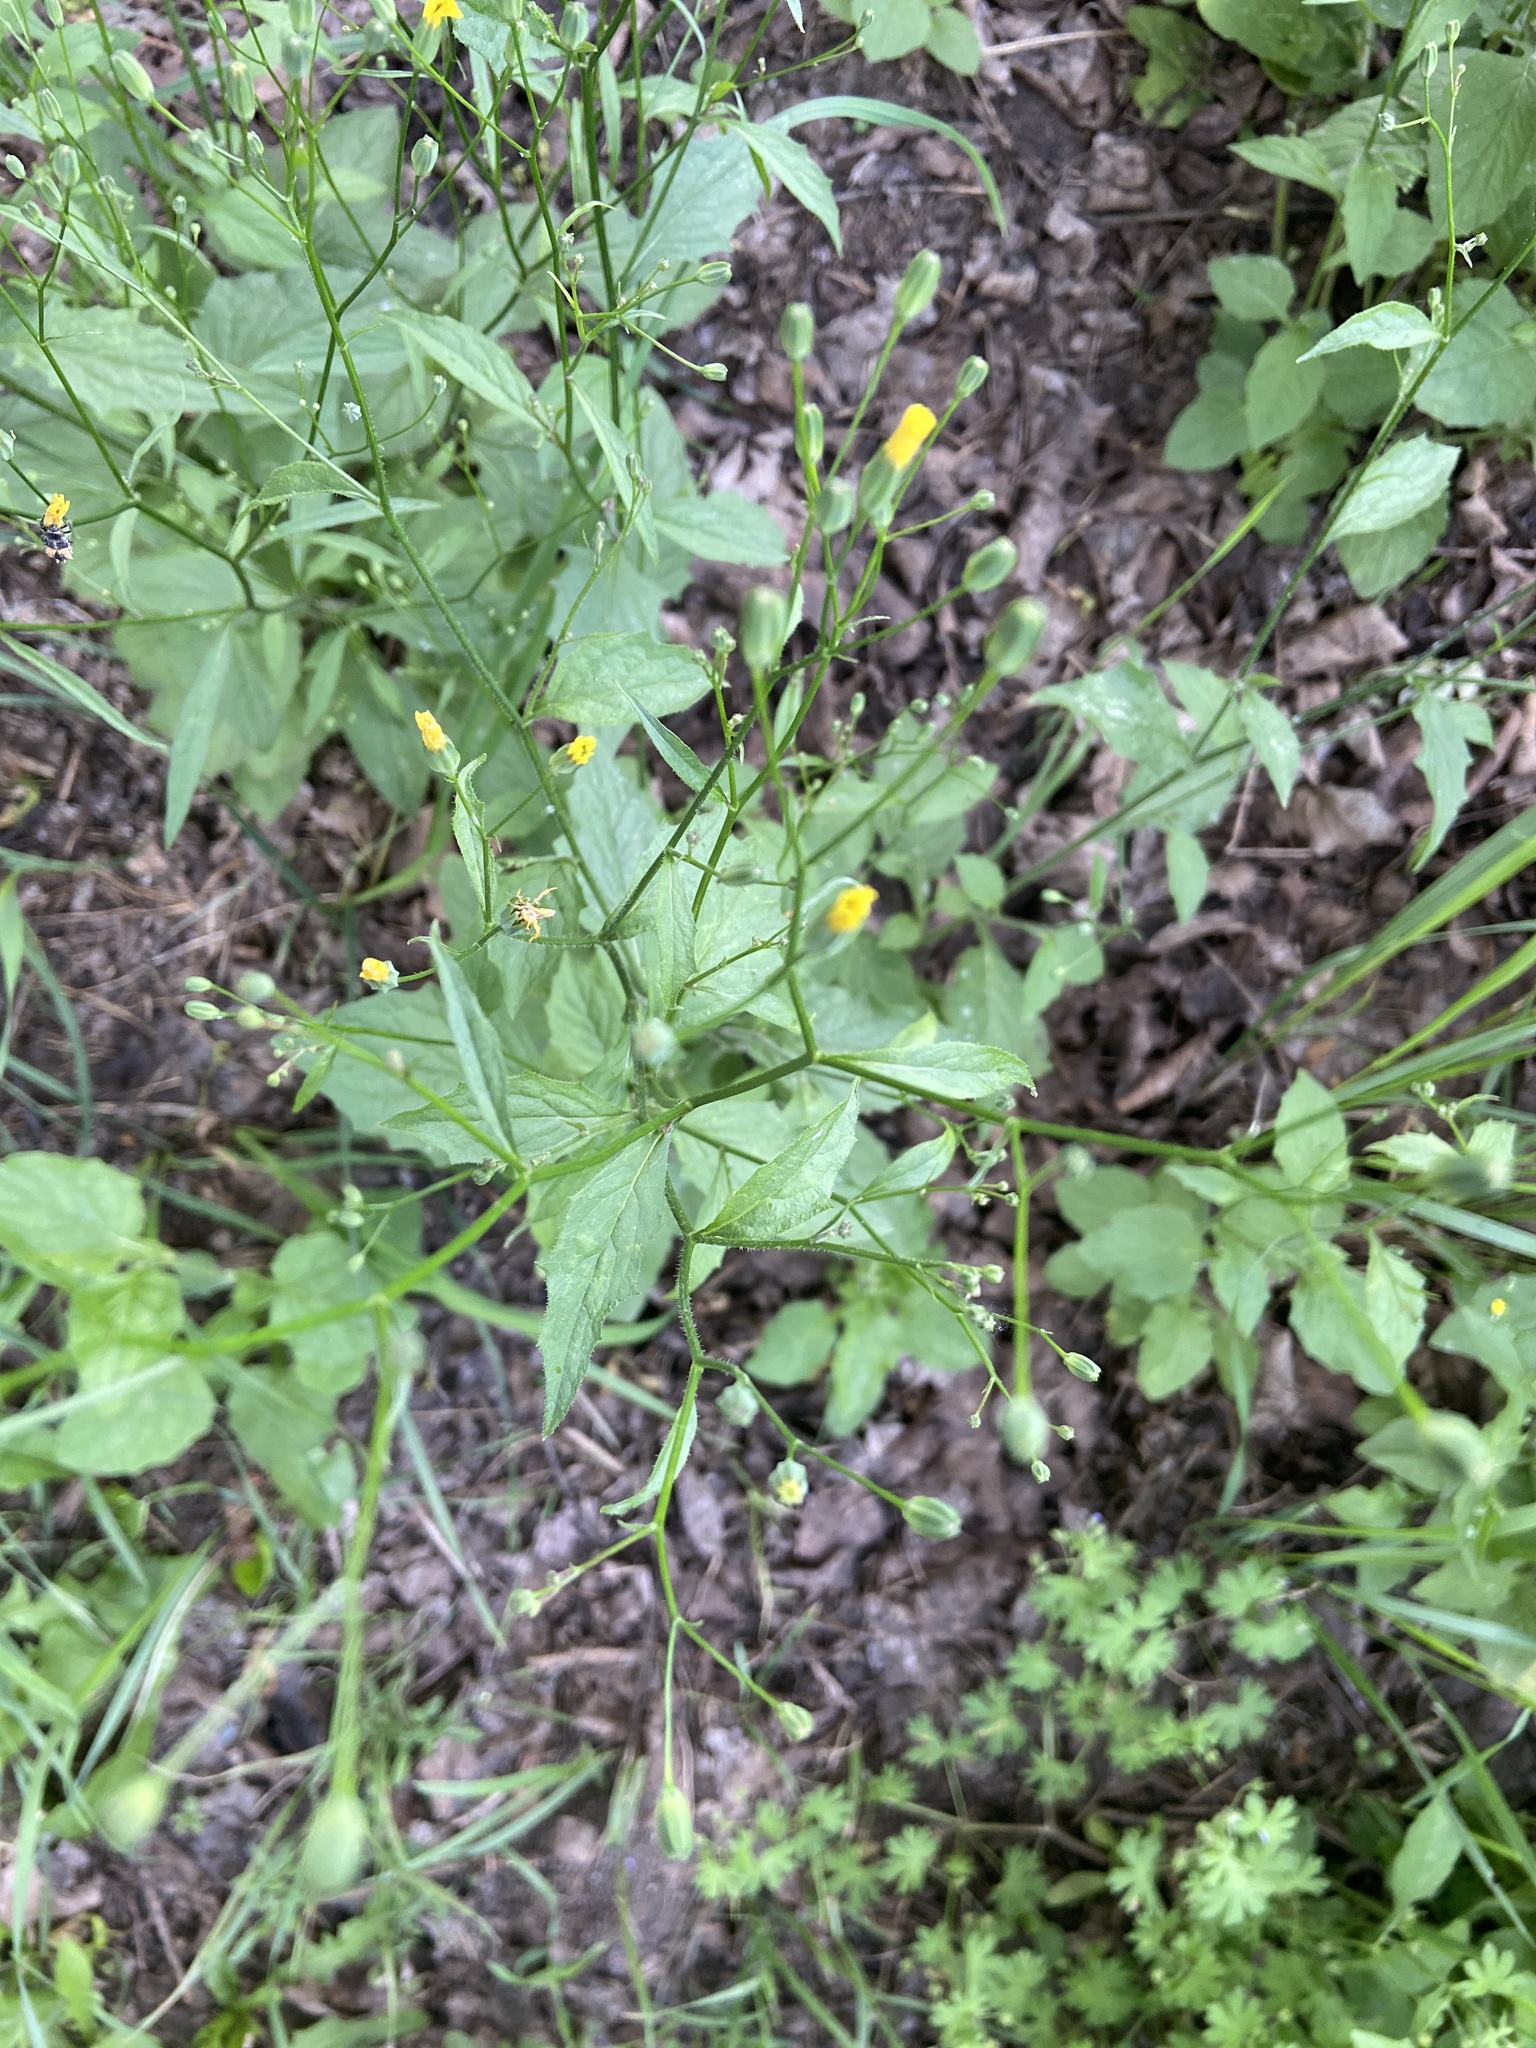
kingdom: Plantae
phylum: Tracheophyta
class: Magnoliopsida
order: Asterales
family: Asteraceae
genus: Lapsana
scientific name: Lapsana communis
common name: Nipplewort
